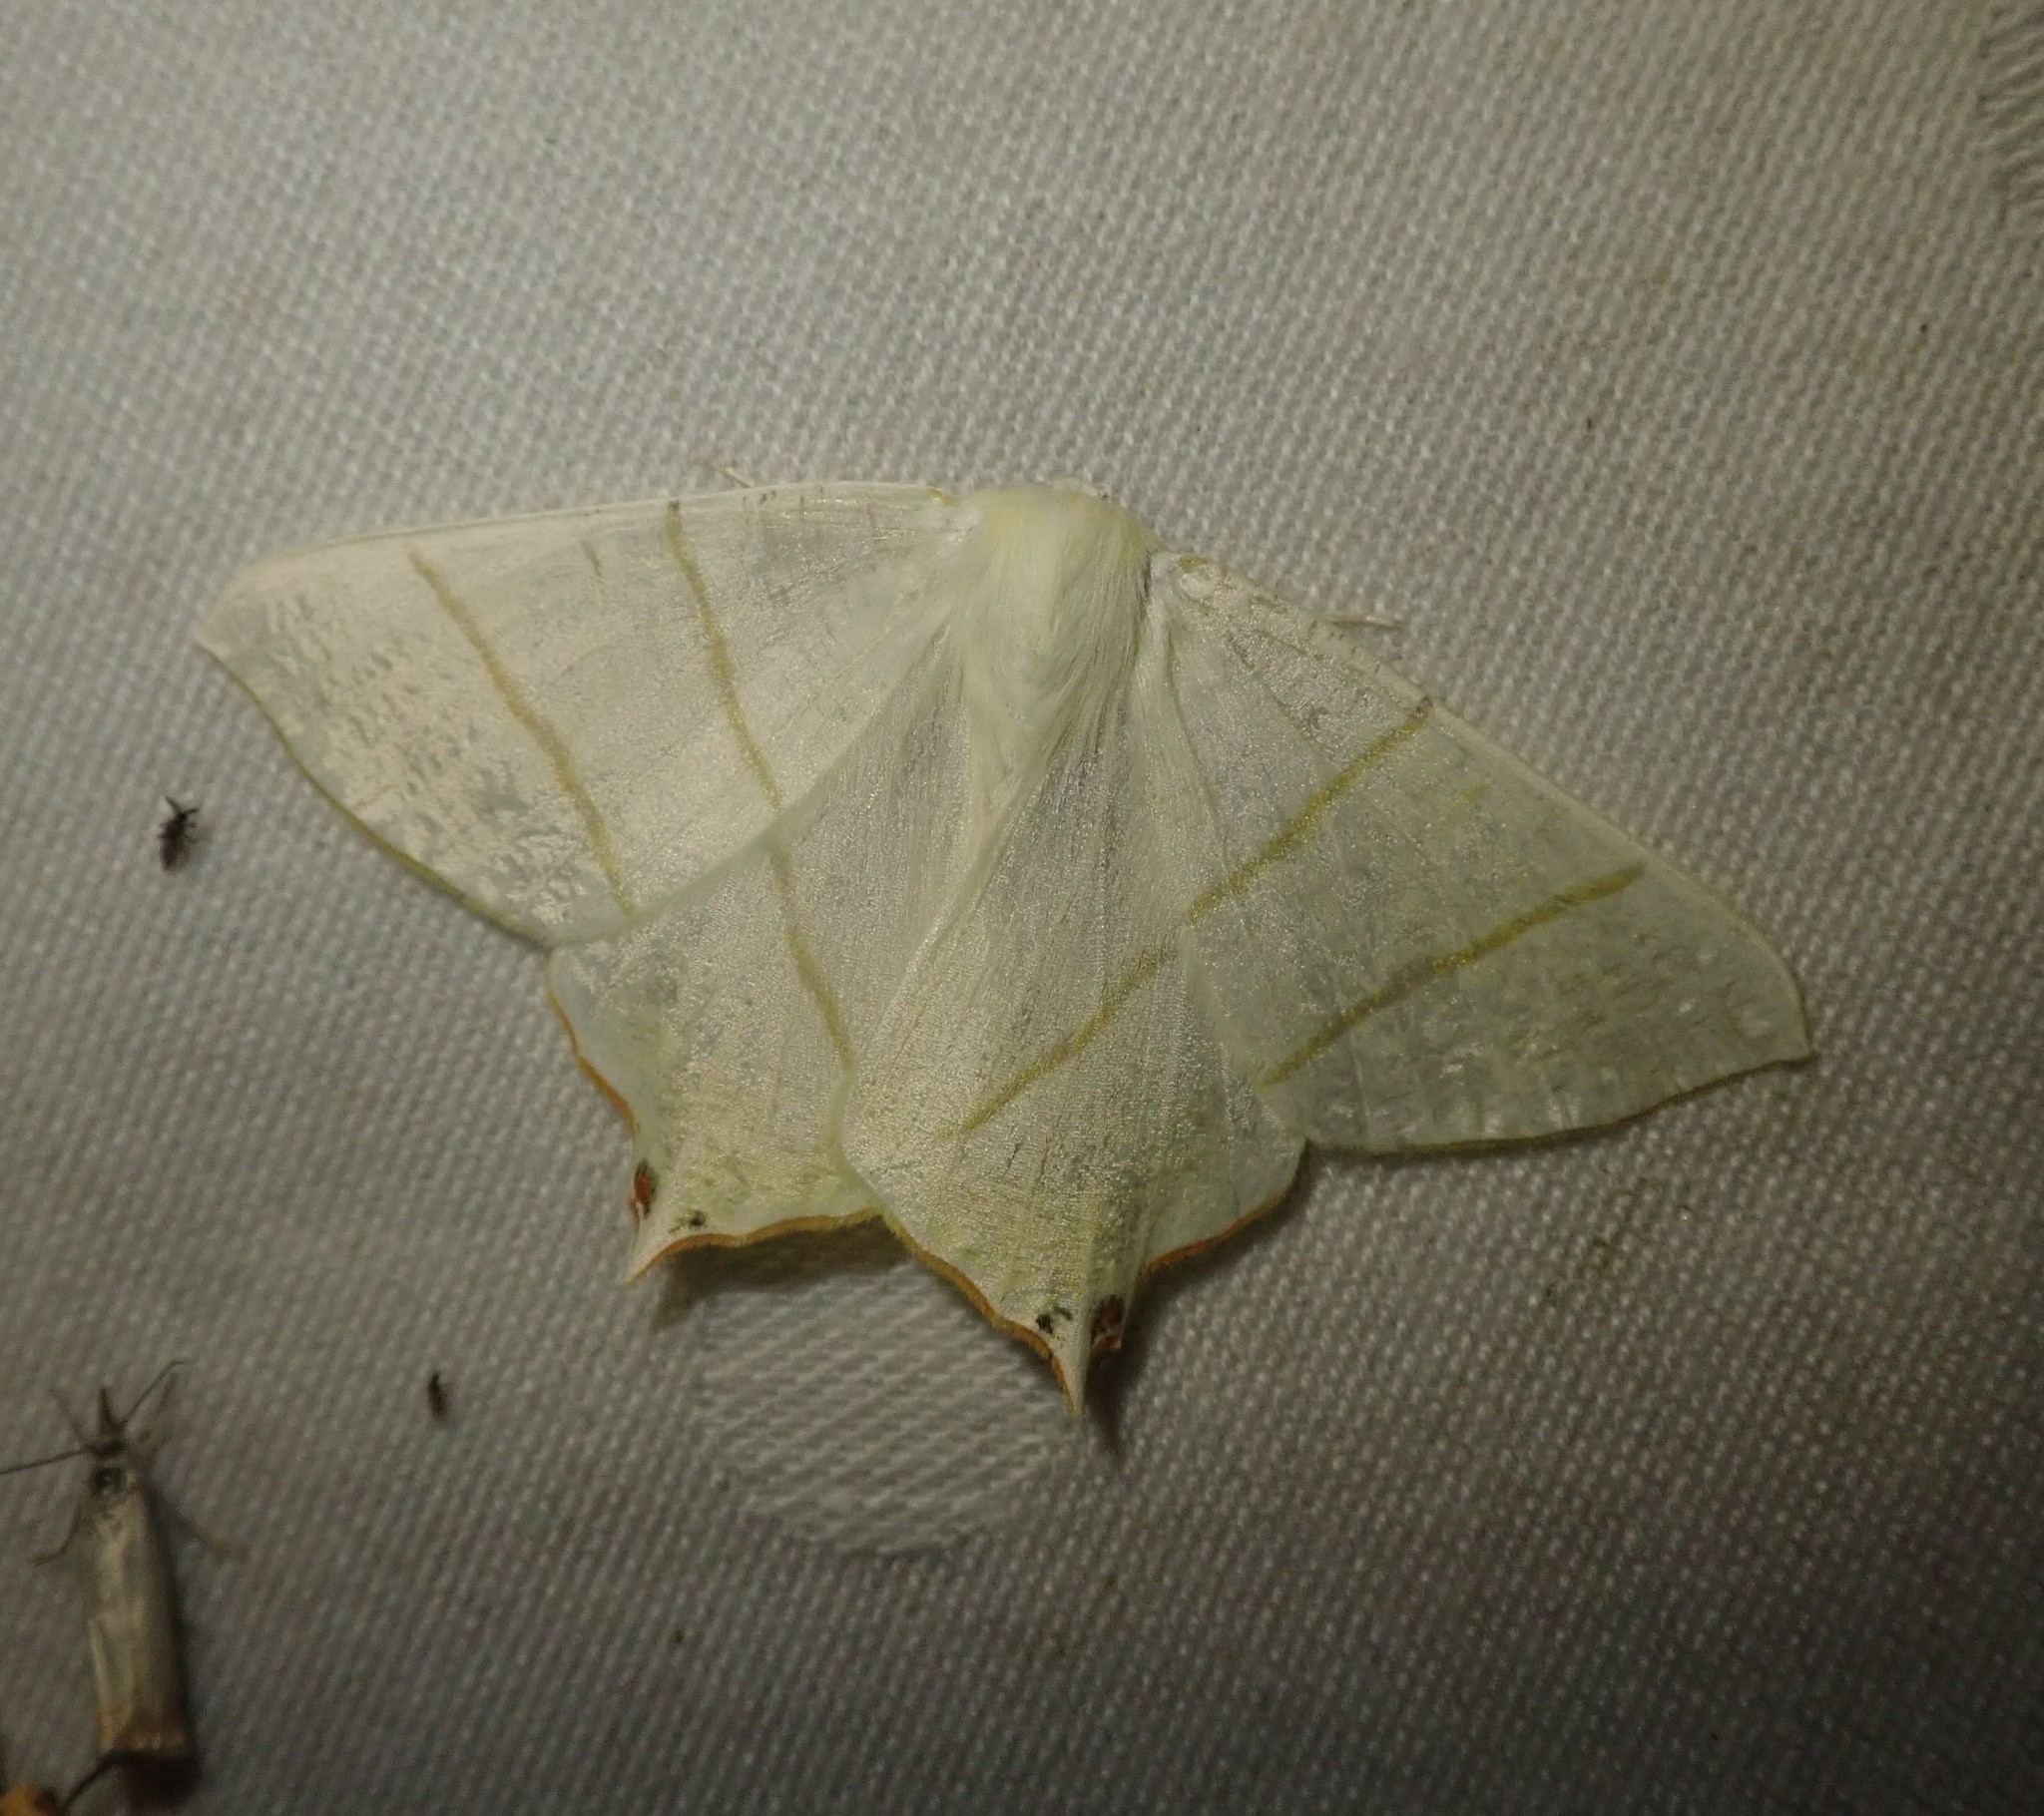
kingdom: Animalia
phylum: Arthropoda
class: Insecta
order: Lepidoptera
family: Geometridae
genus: Ourapteryx
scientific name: Ourapteryx sambucaria
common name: Swallow-tailed moth
